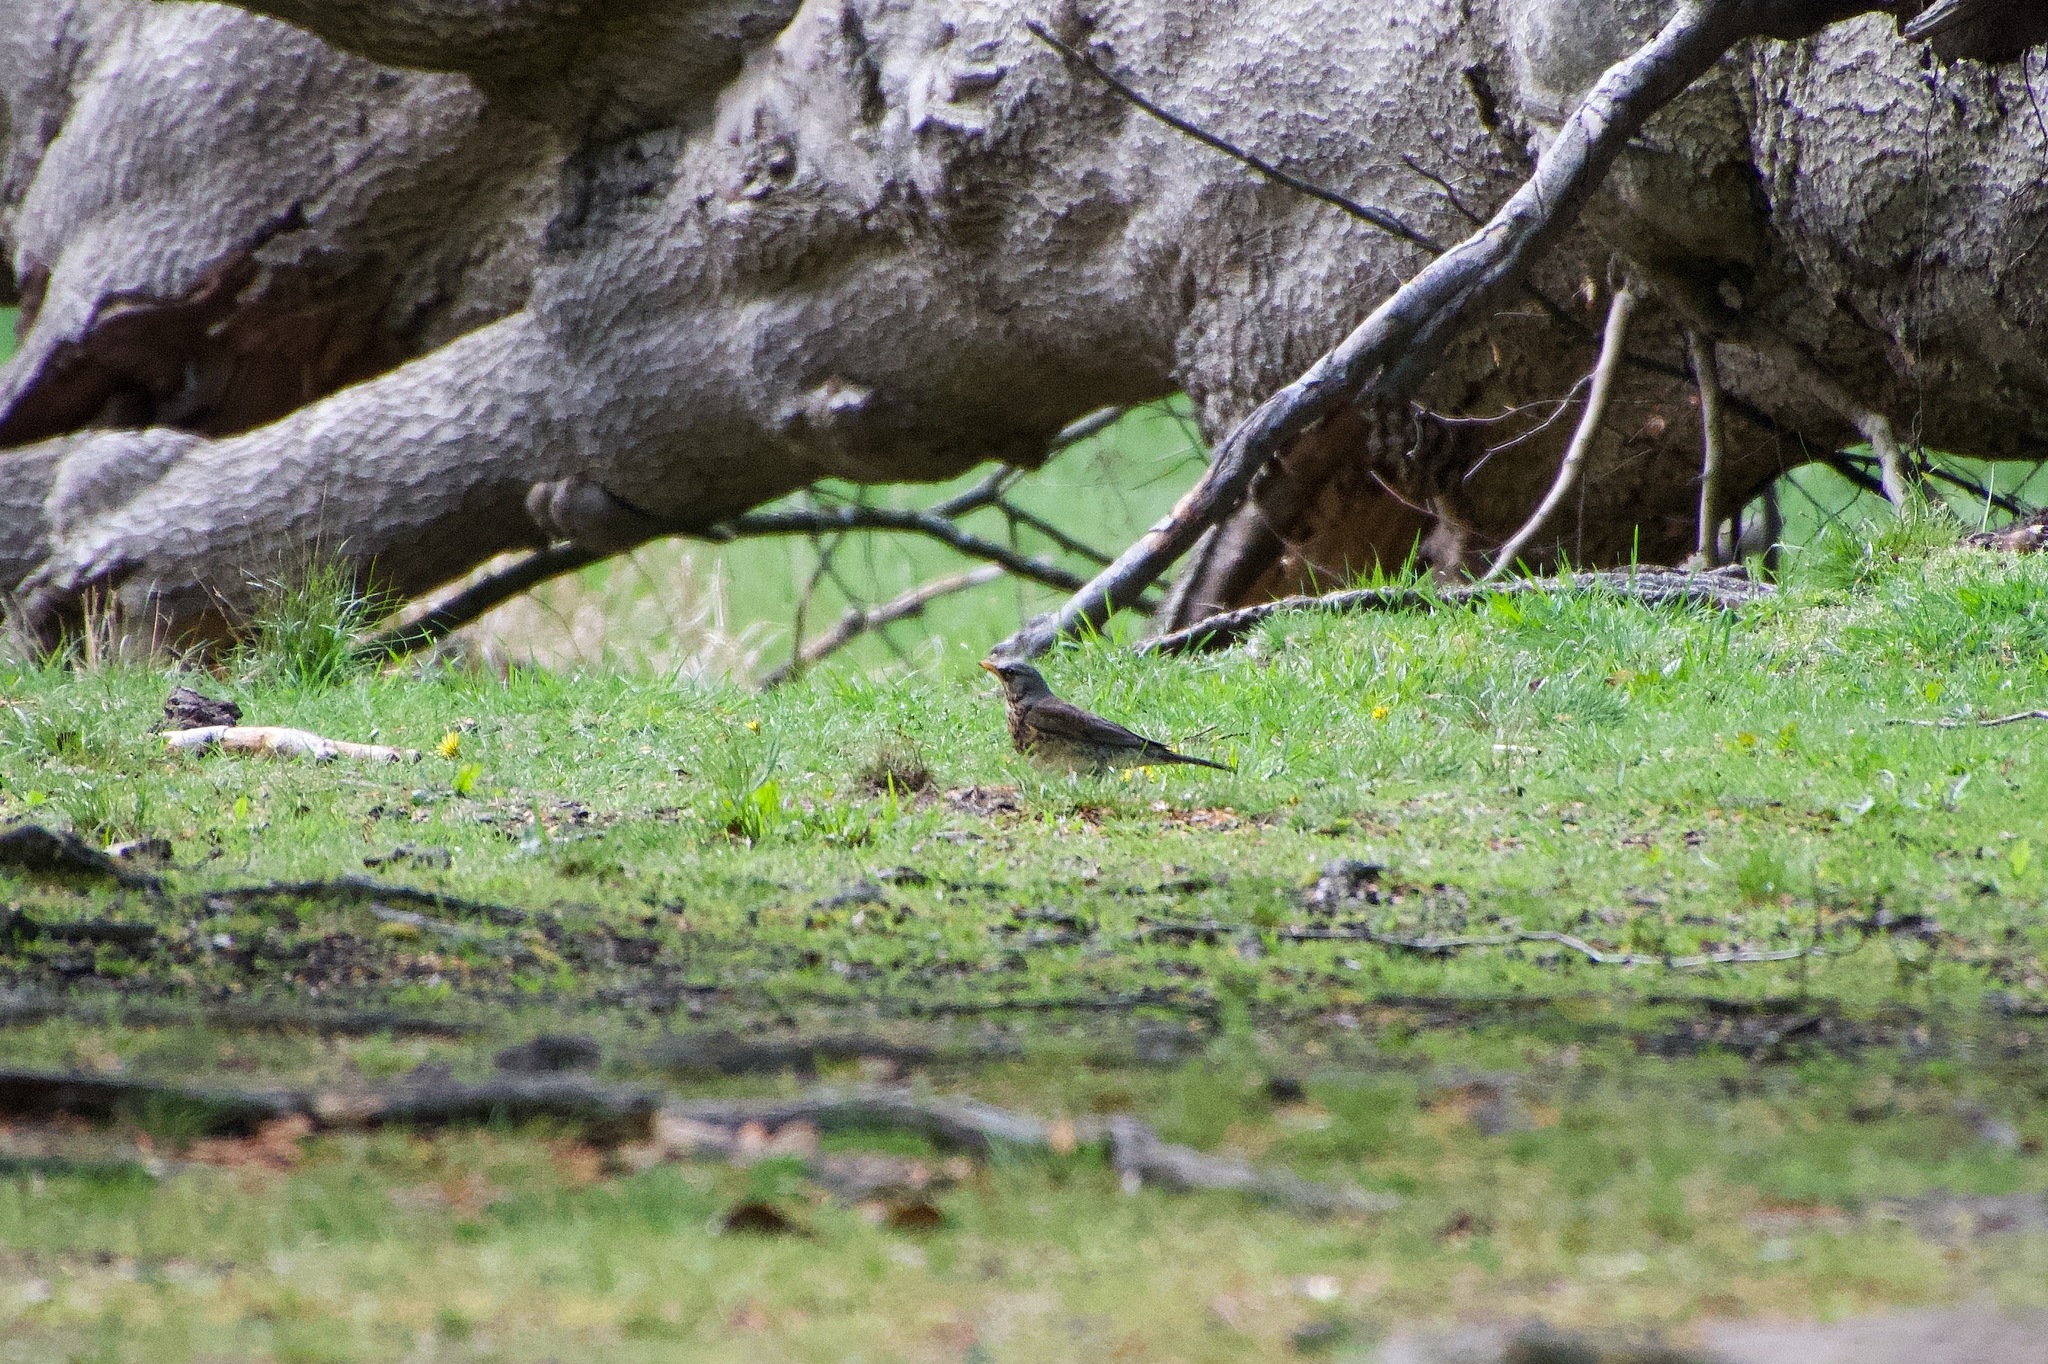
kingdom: Animalia
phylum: Chordata
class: Aves
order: Passeriformes
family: Turdidae
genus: Turdus
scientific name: Turdus pilaris
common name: Fieldfare
